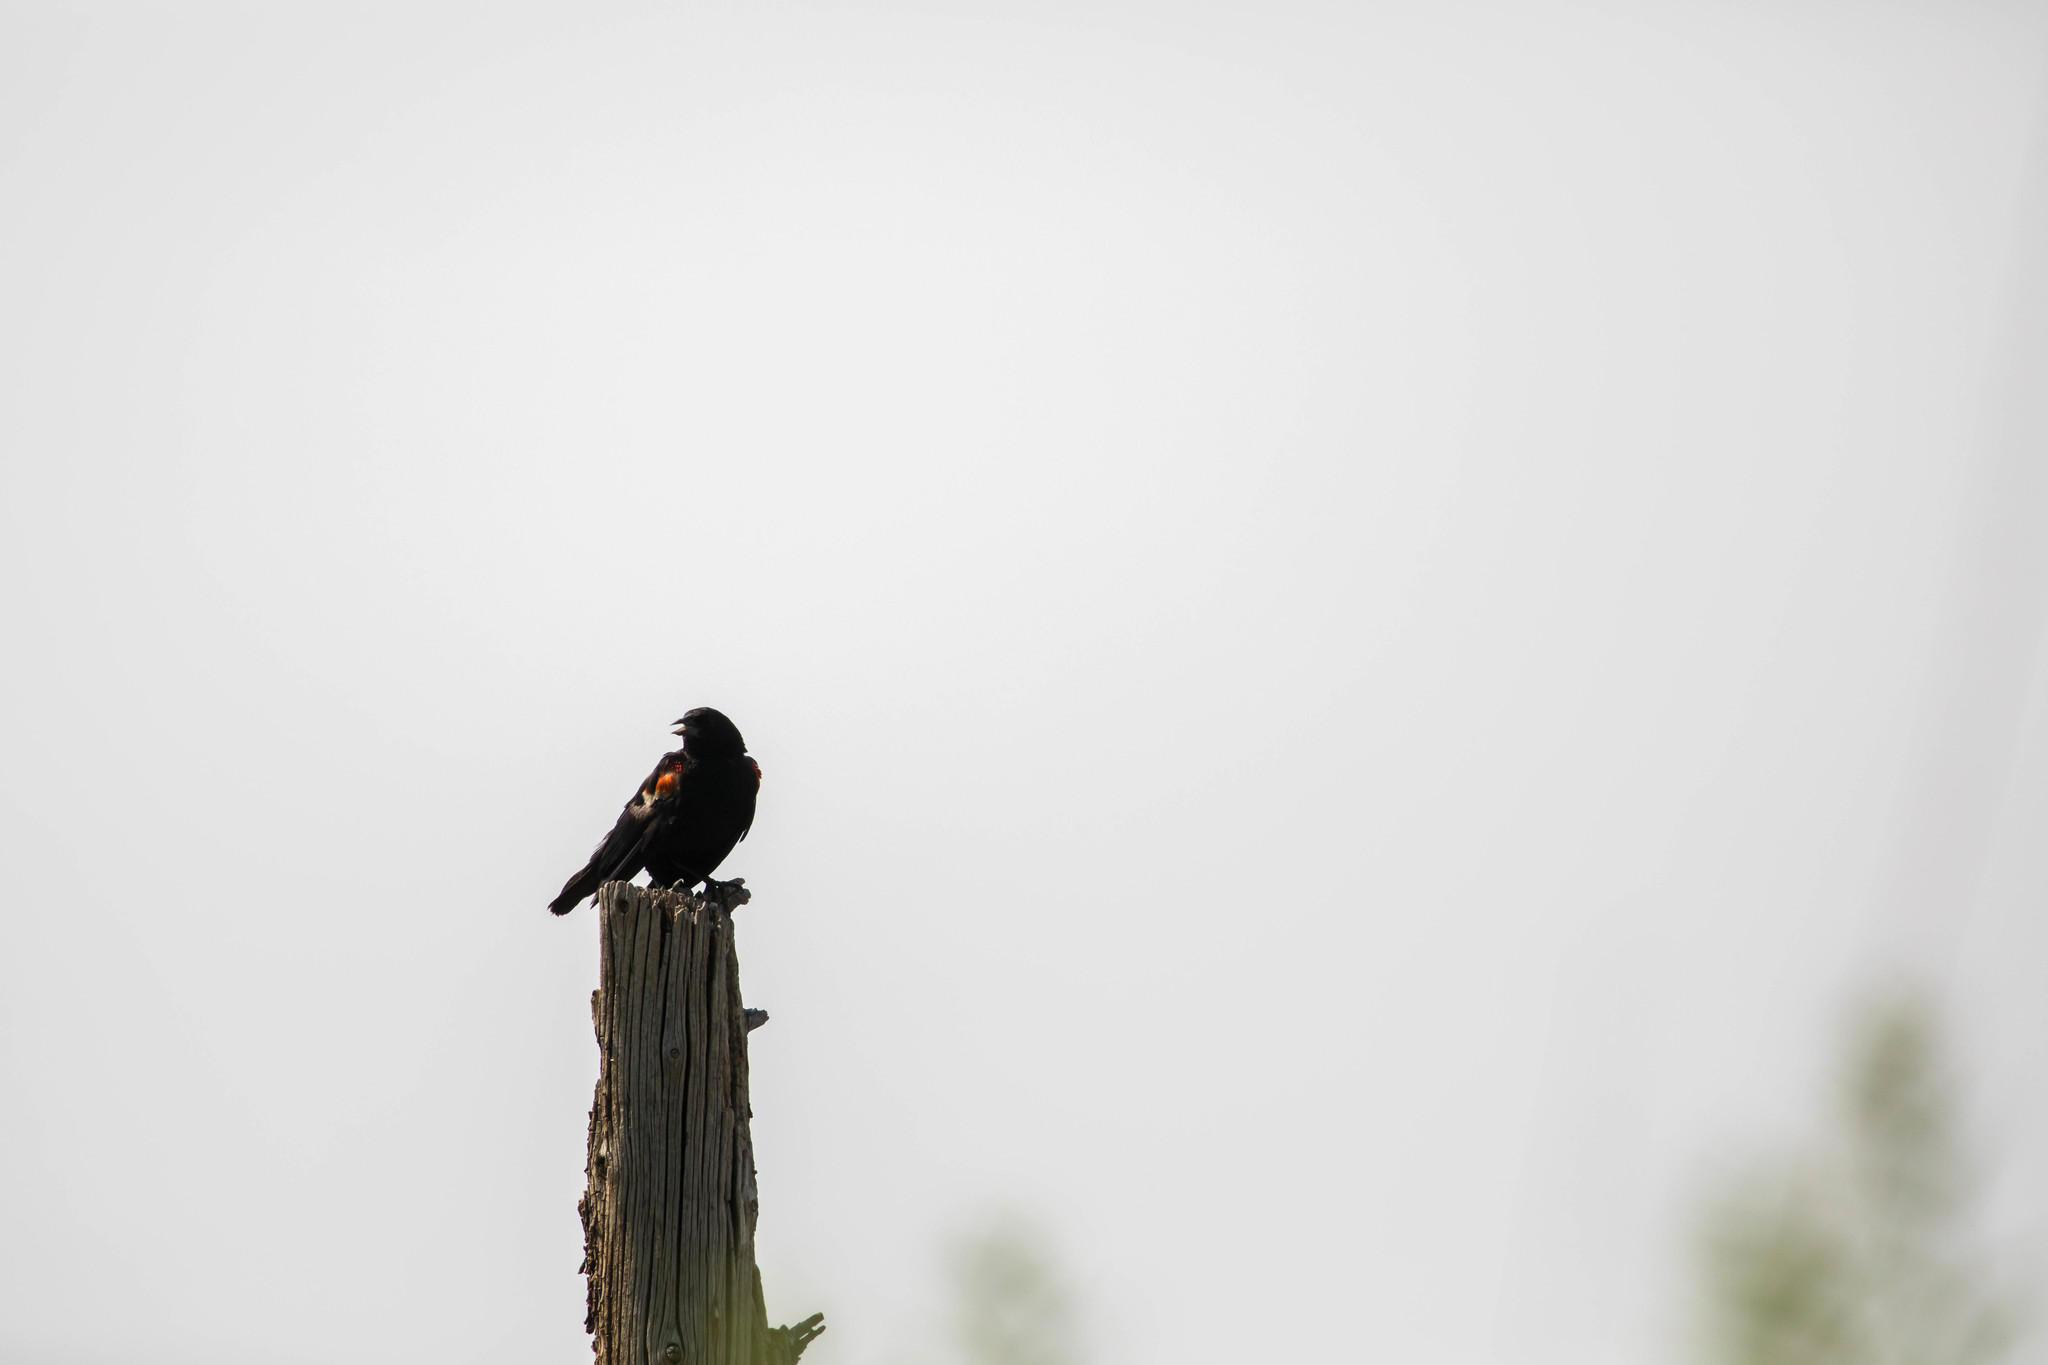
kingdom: Animalia
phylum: Chordata
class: Aves
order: Passeriformes
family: Icteridae
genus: Agelaius
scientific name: Agelaius phoeniceus
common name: Red-winged blackbird
